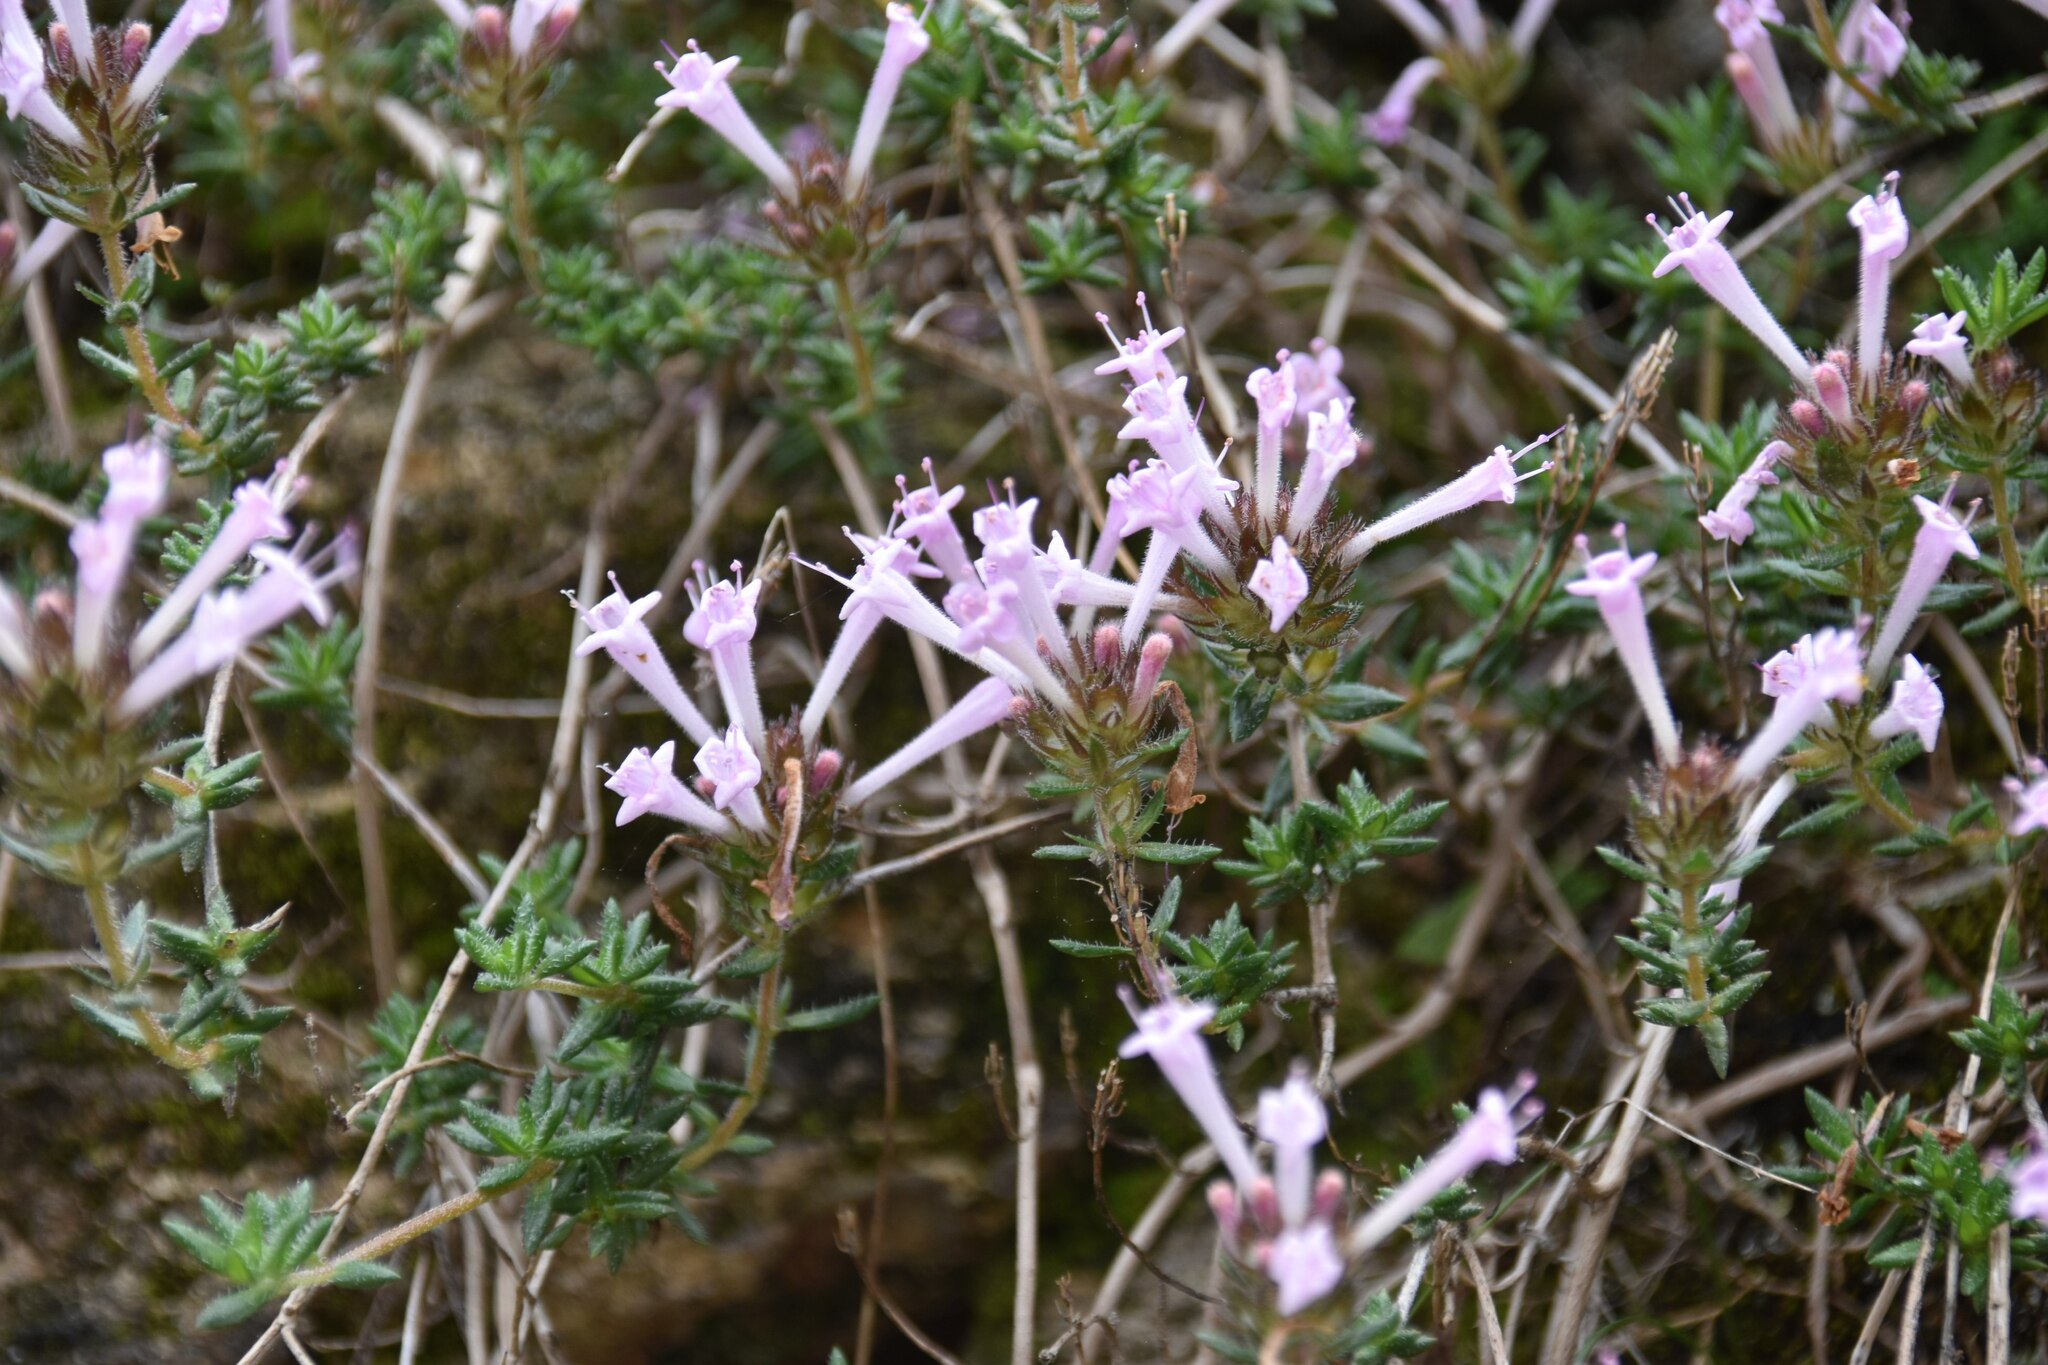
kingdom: Plantae
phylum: Tracheophyta
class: Magnoliopsida
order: Lamiales
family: Lamiaceae
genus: Thymus
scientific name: Thymus integer
